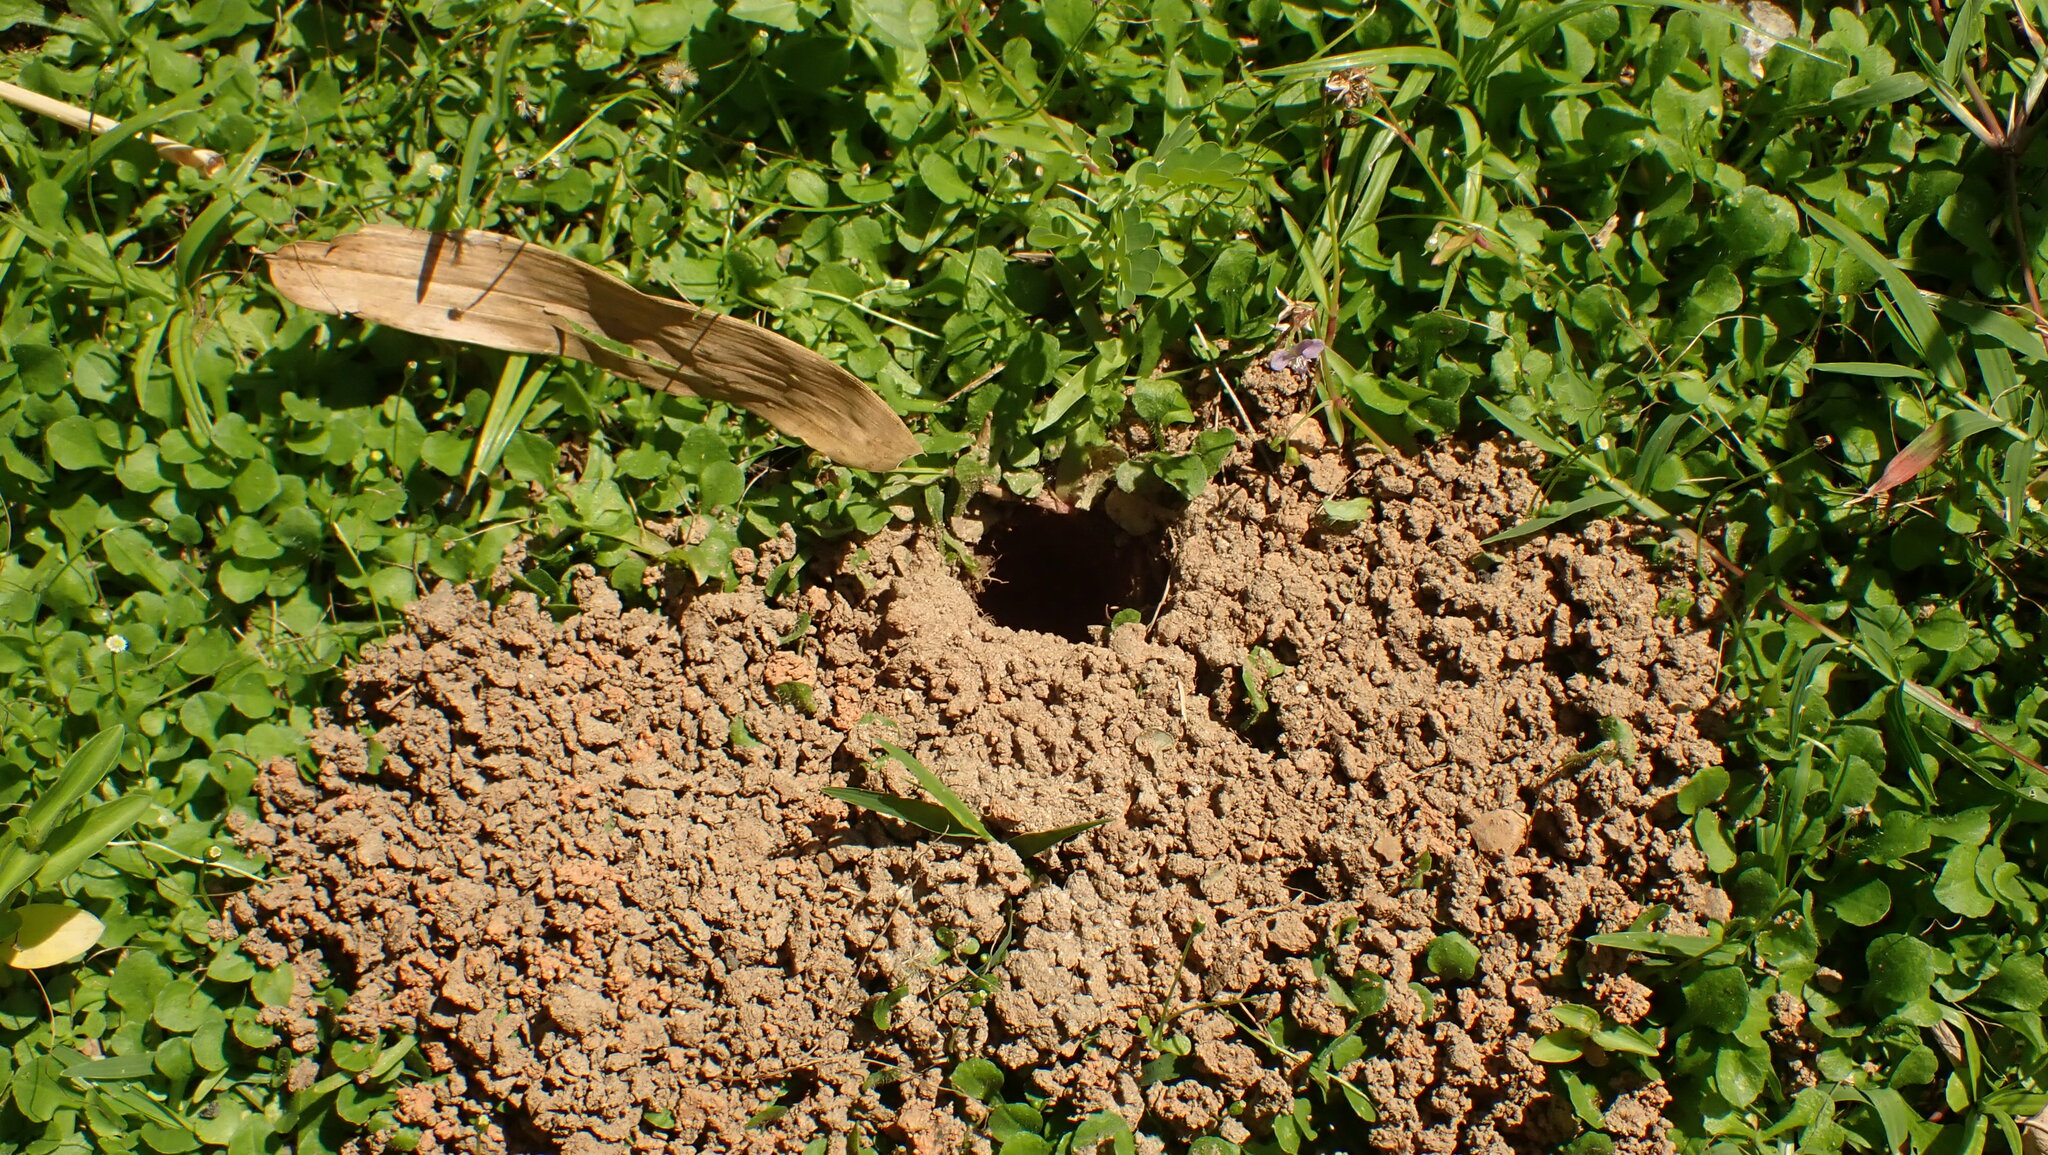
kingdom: Animalia
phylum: Arthropoda
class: Arachnida
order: Araneae
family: Theraphosidae
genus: Cyrtopholis
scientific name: Cyrtopholis portoricae
